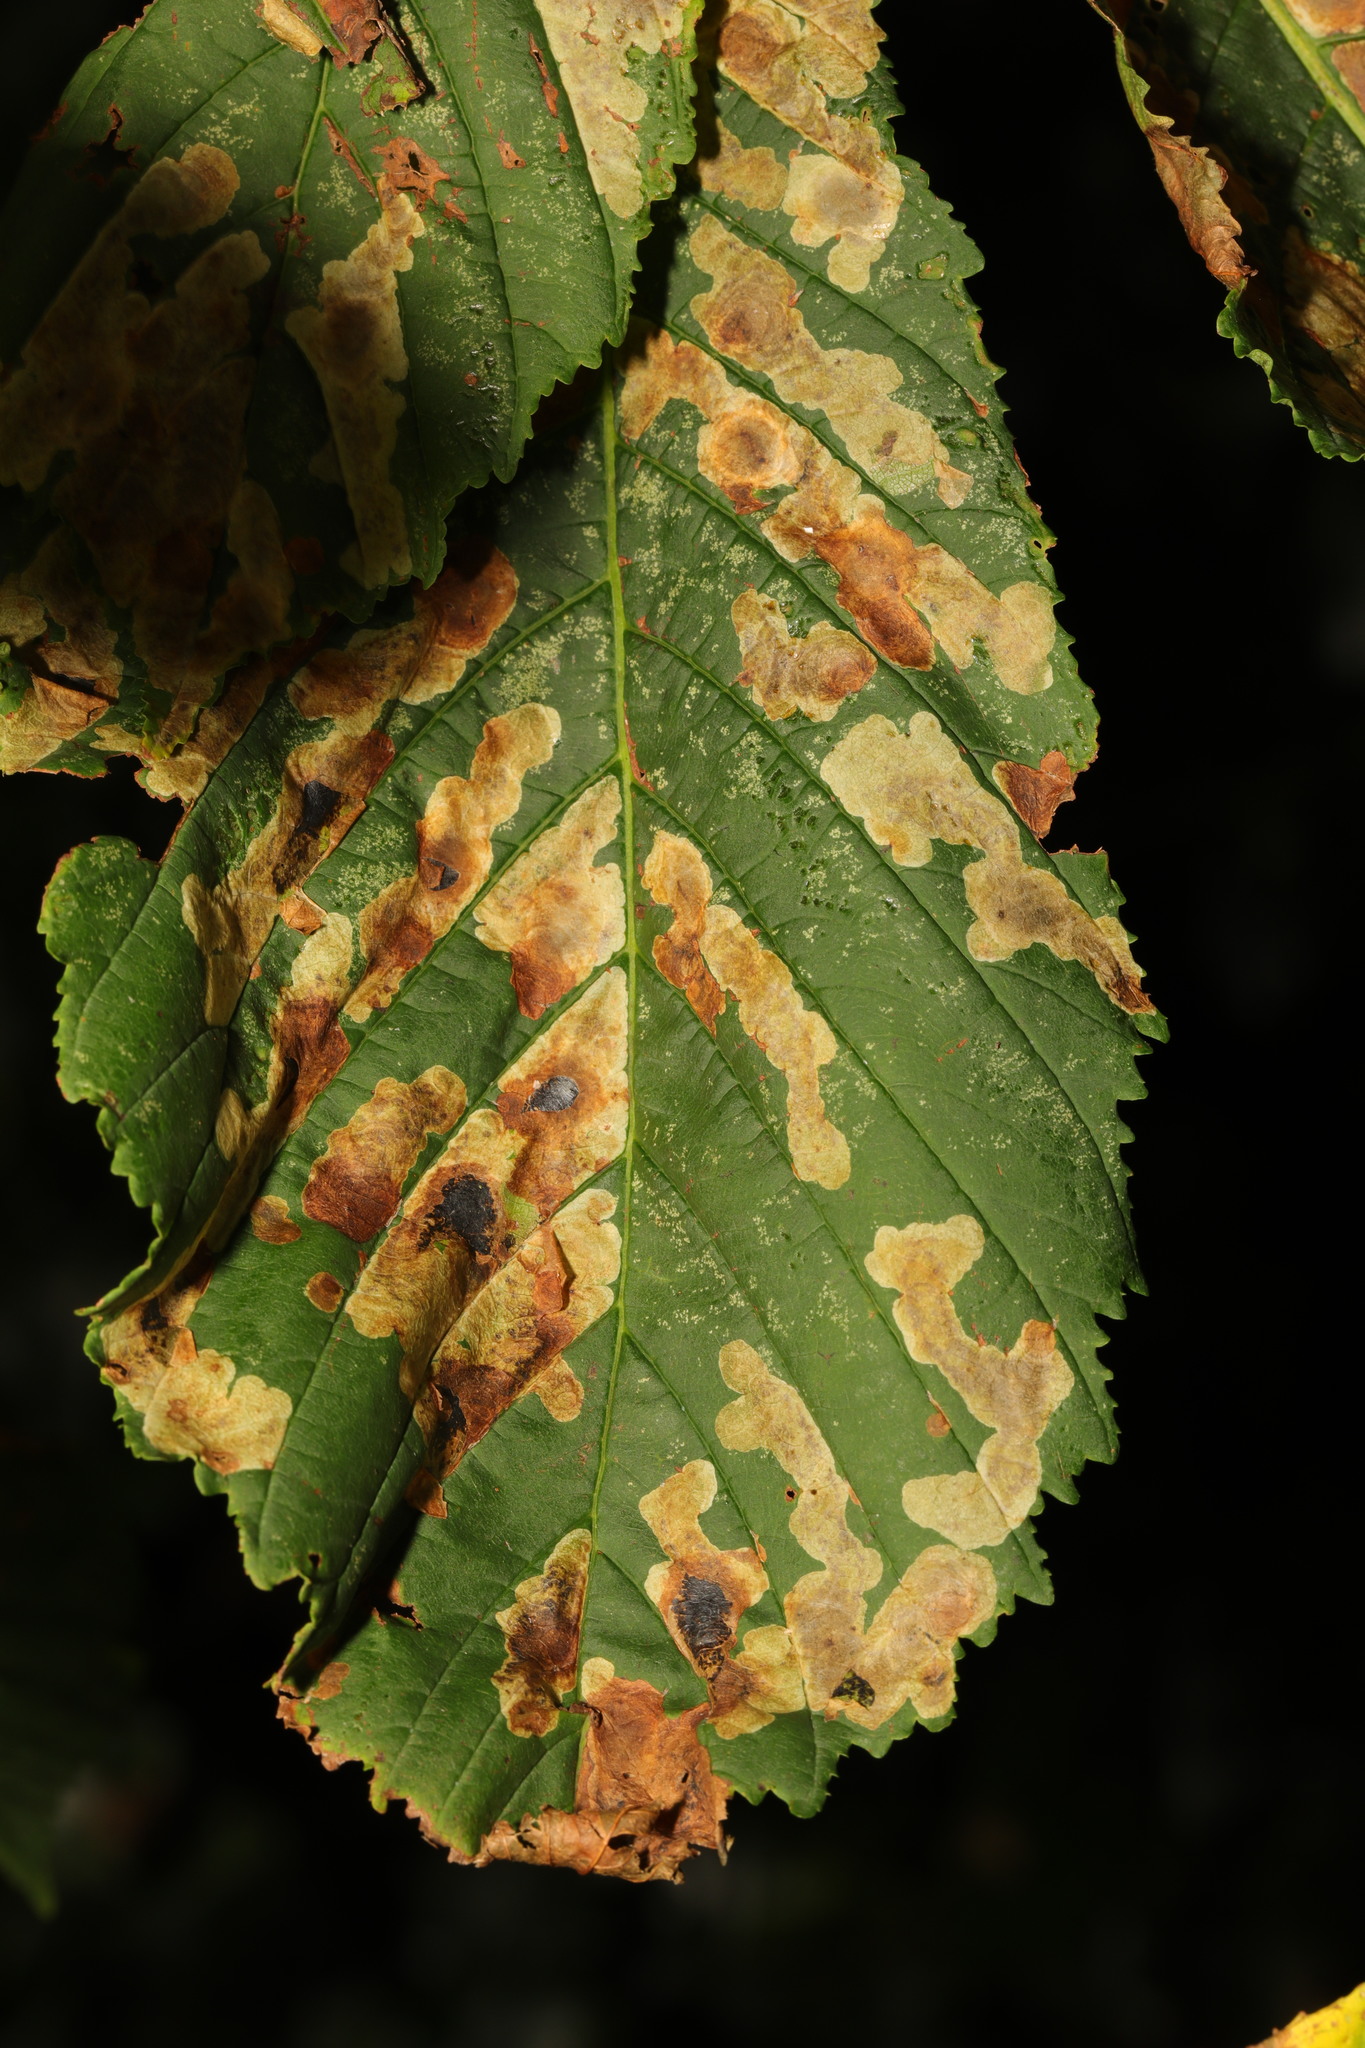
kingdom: Animalia
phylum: Arthropoda
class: Insecta
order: Lepidoptera
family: Gracillariidae
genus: Cameraria
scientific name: Cameraria ohridella
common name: Horse-chestnut leaf-miner
